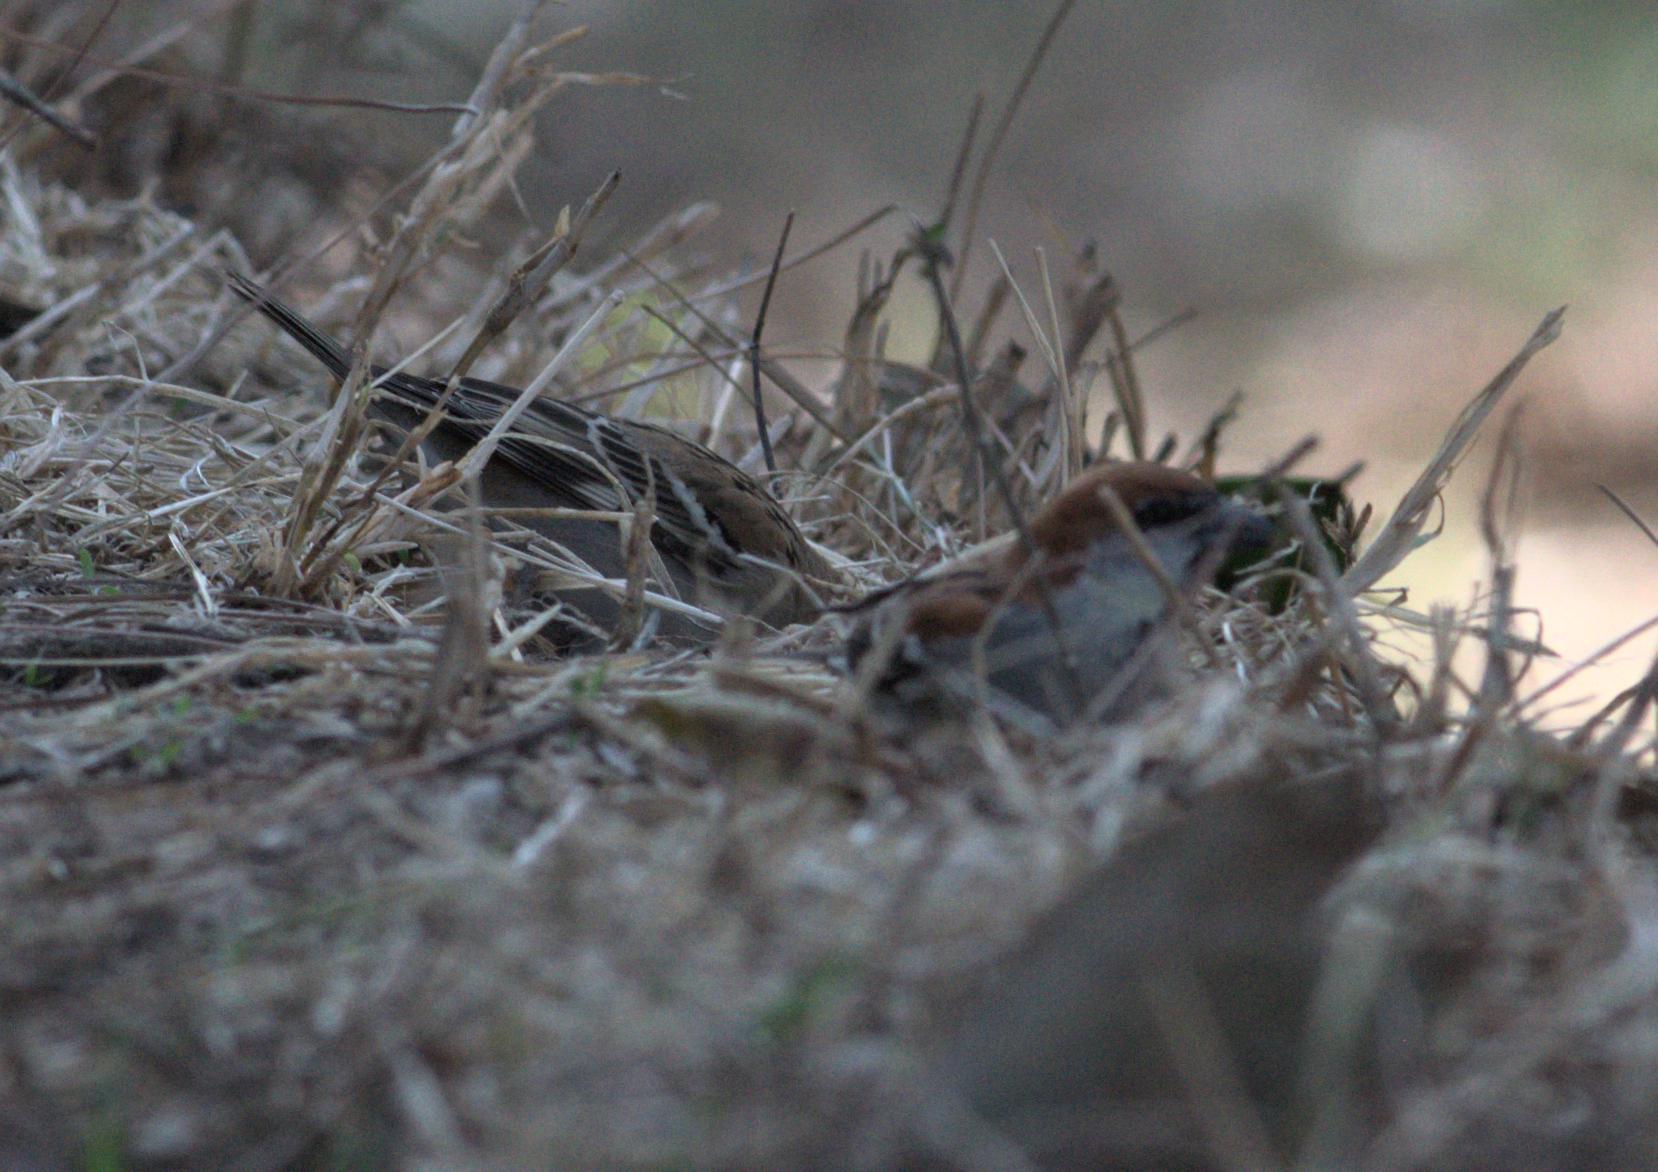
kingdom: Animalia
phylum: Chordata
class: Aves
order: Passeriformes
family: Passeridae
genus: Passer
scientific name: Passer cinnamomeus
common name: Russet sparrow
